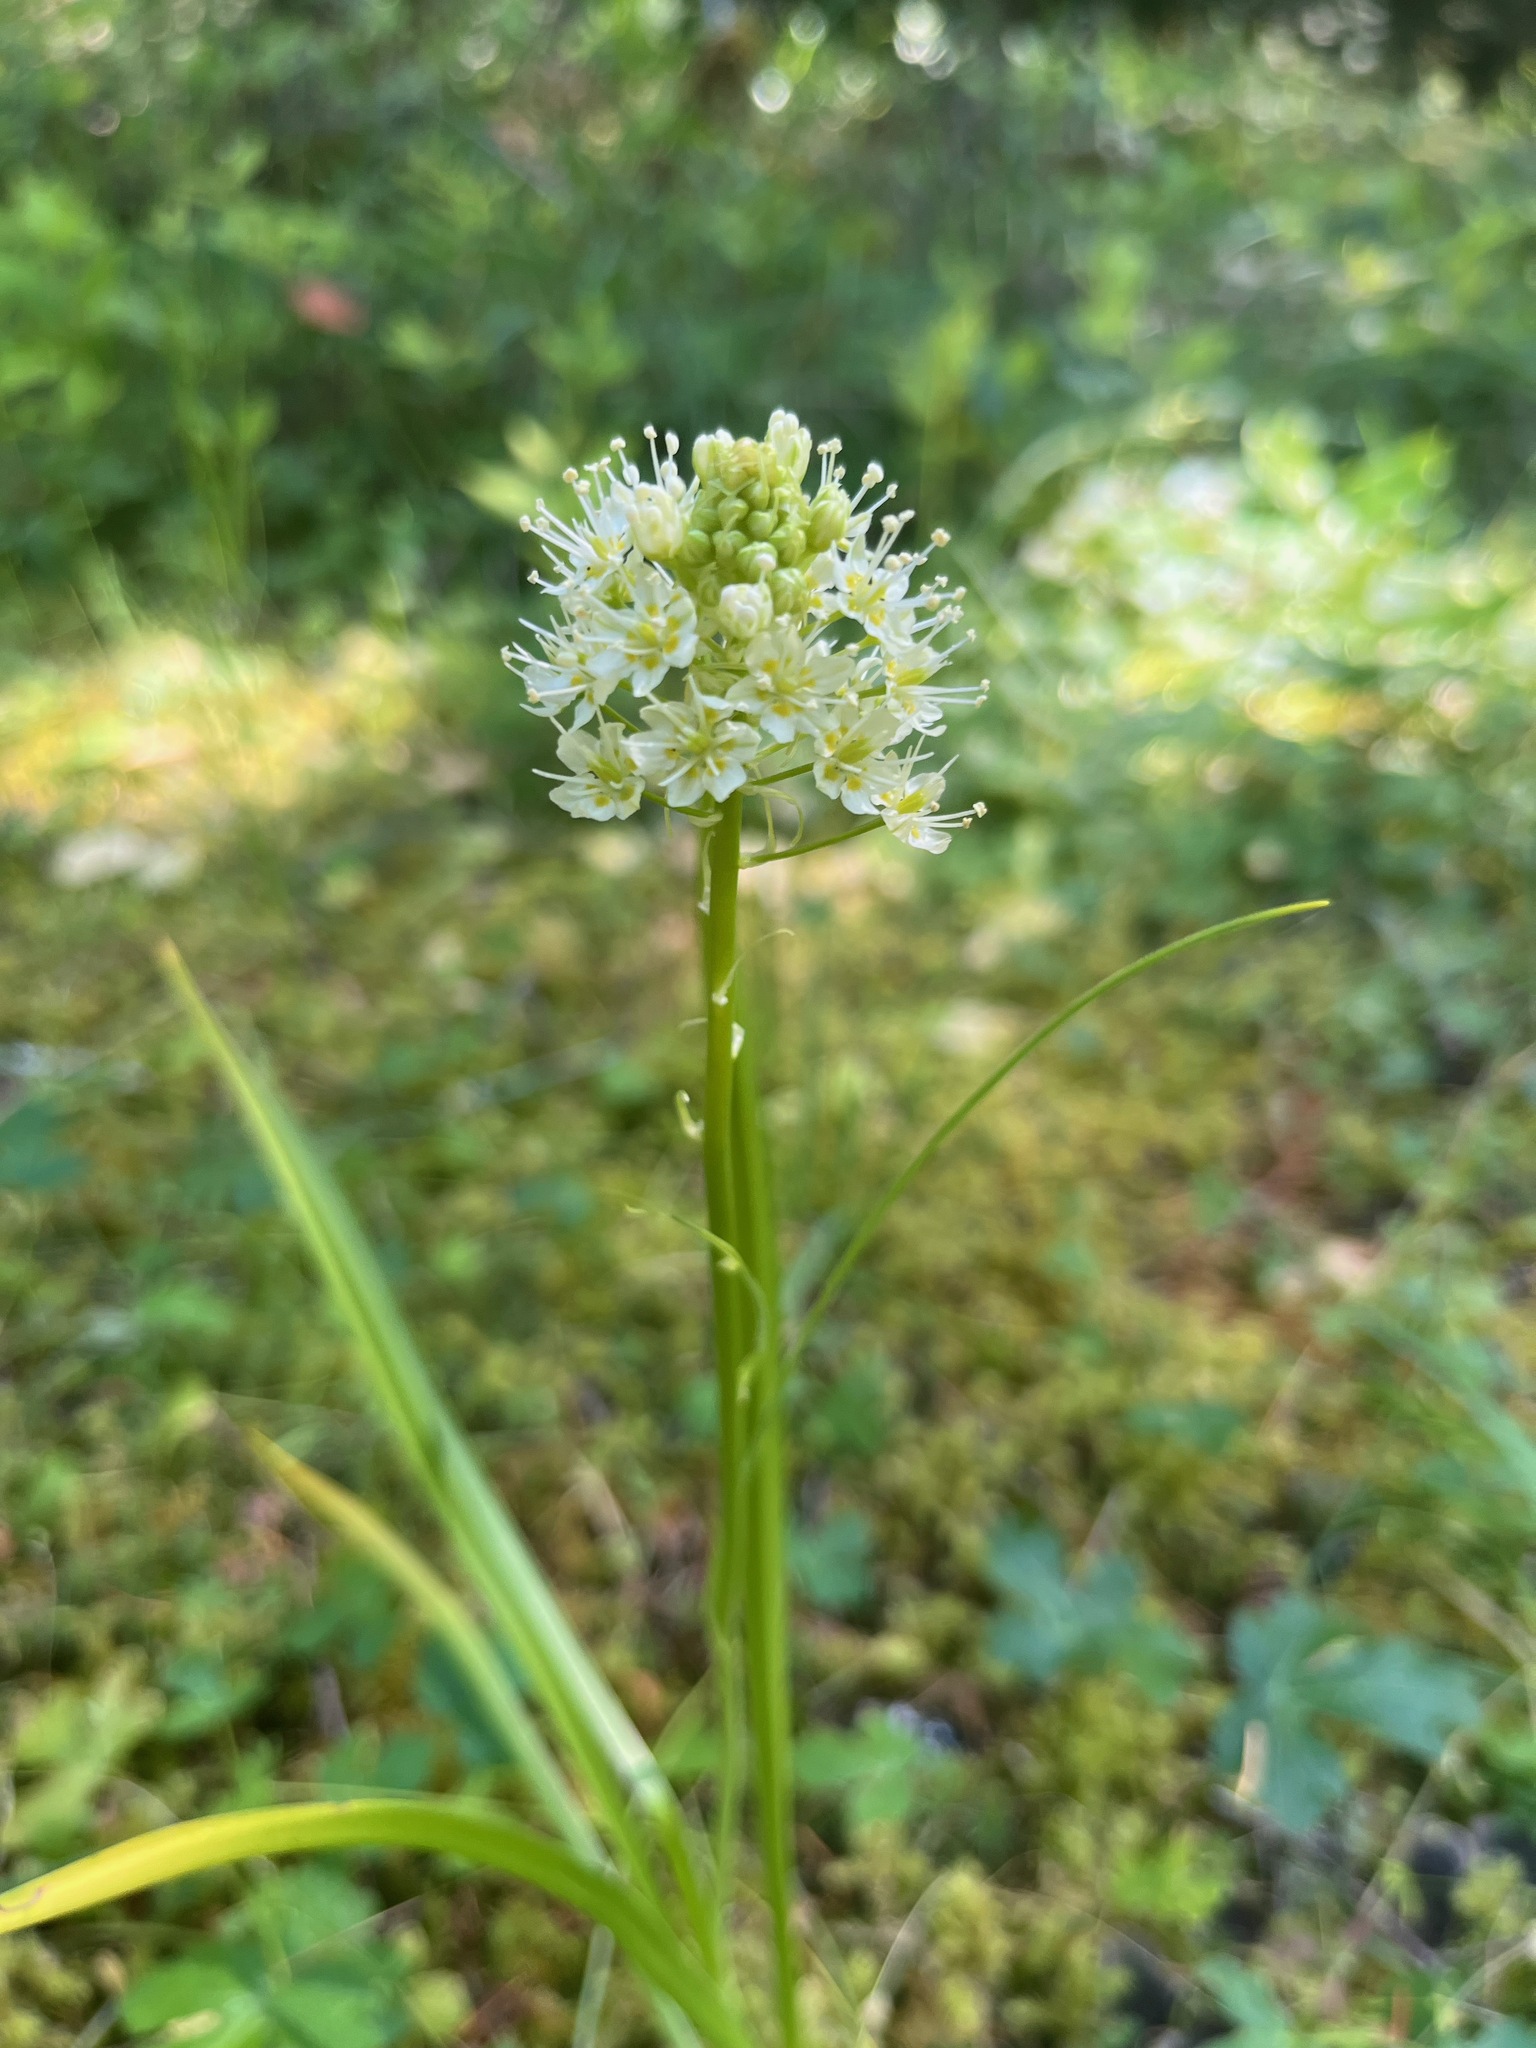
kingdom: Plantae
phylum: Tracheophyta
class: Liliopsida
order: Liliales
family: Melanthiaceae
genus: Toxicoscordion
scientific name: Toxicoscordion venenosum
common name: Meadow death camas
